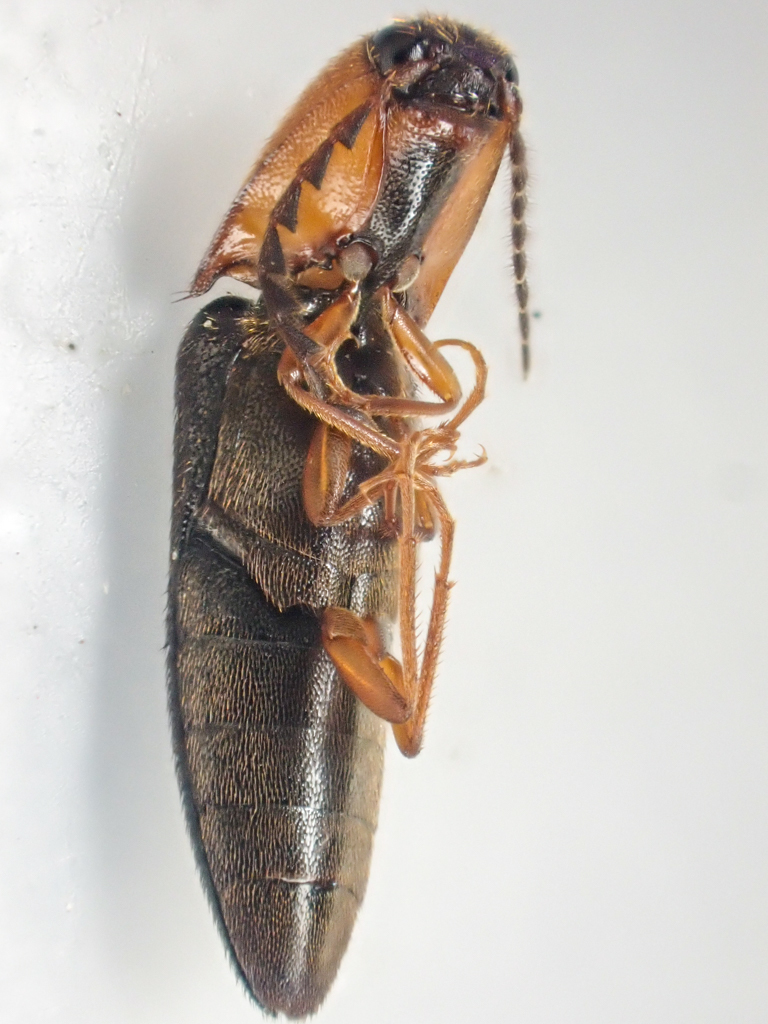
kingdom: Animalia
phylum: Arthropoda
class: Insecta
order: Coleoptera
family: Elateridae
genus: Megapenthes
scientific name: Megapenthes
